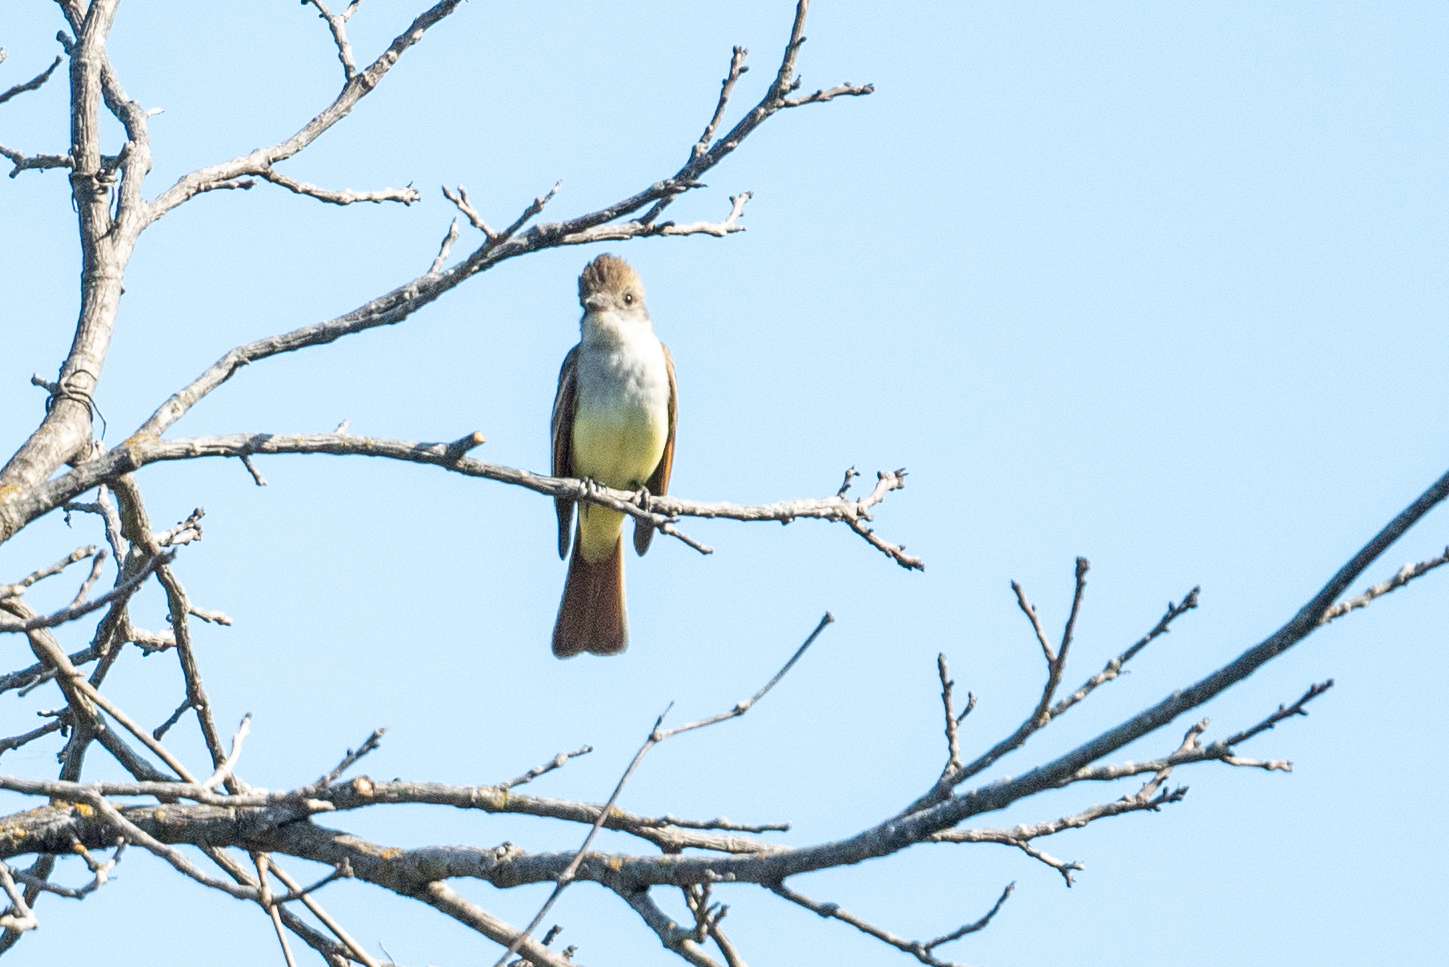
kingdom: Animalia
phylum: Chordata
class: Aves
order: Passeriformes
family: Tyrannidae
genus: Myiarchus
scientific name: Myiarchus cinerascens
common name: Ash-throated flycatcher
